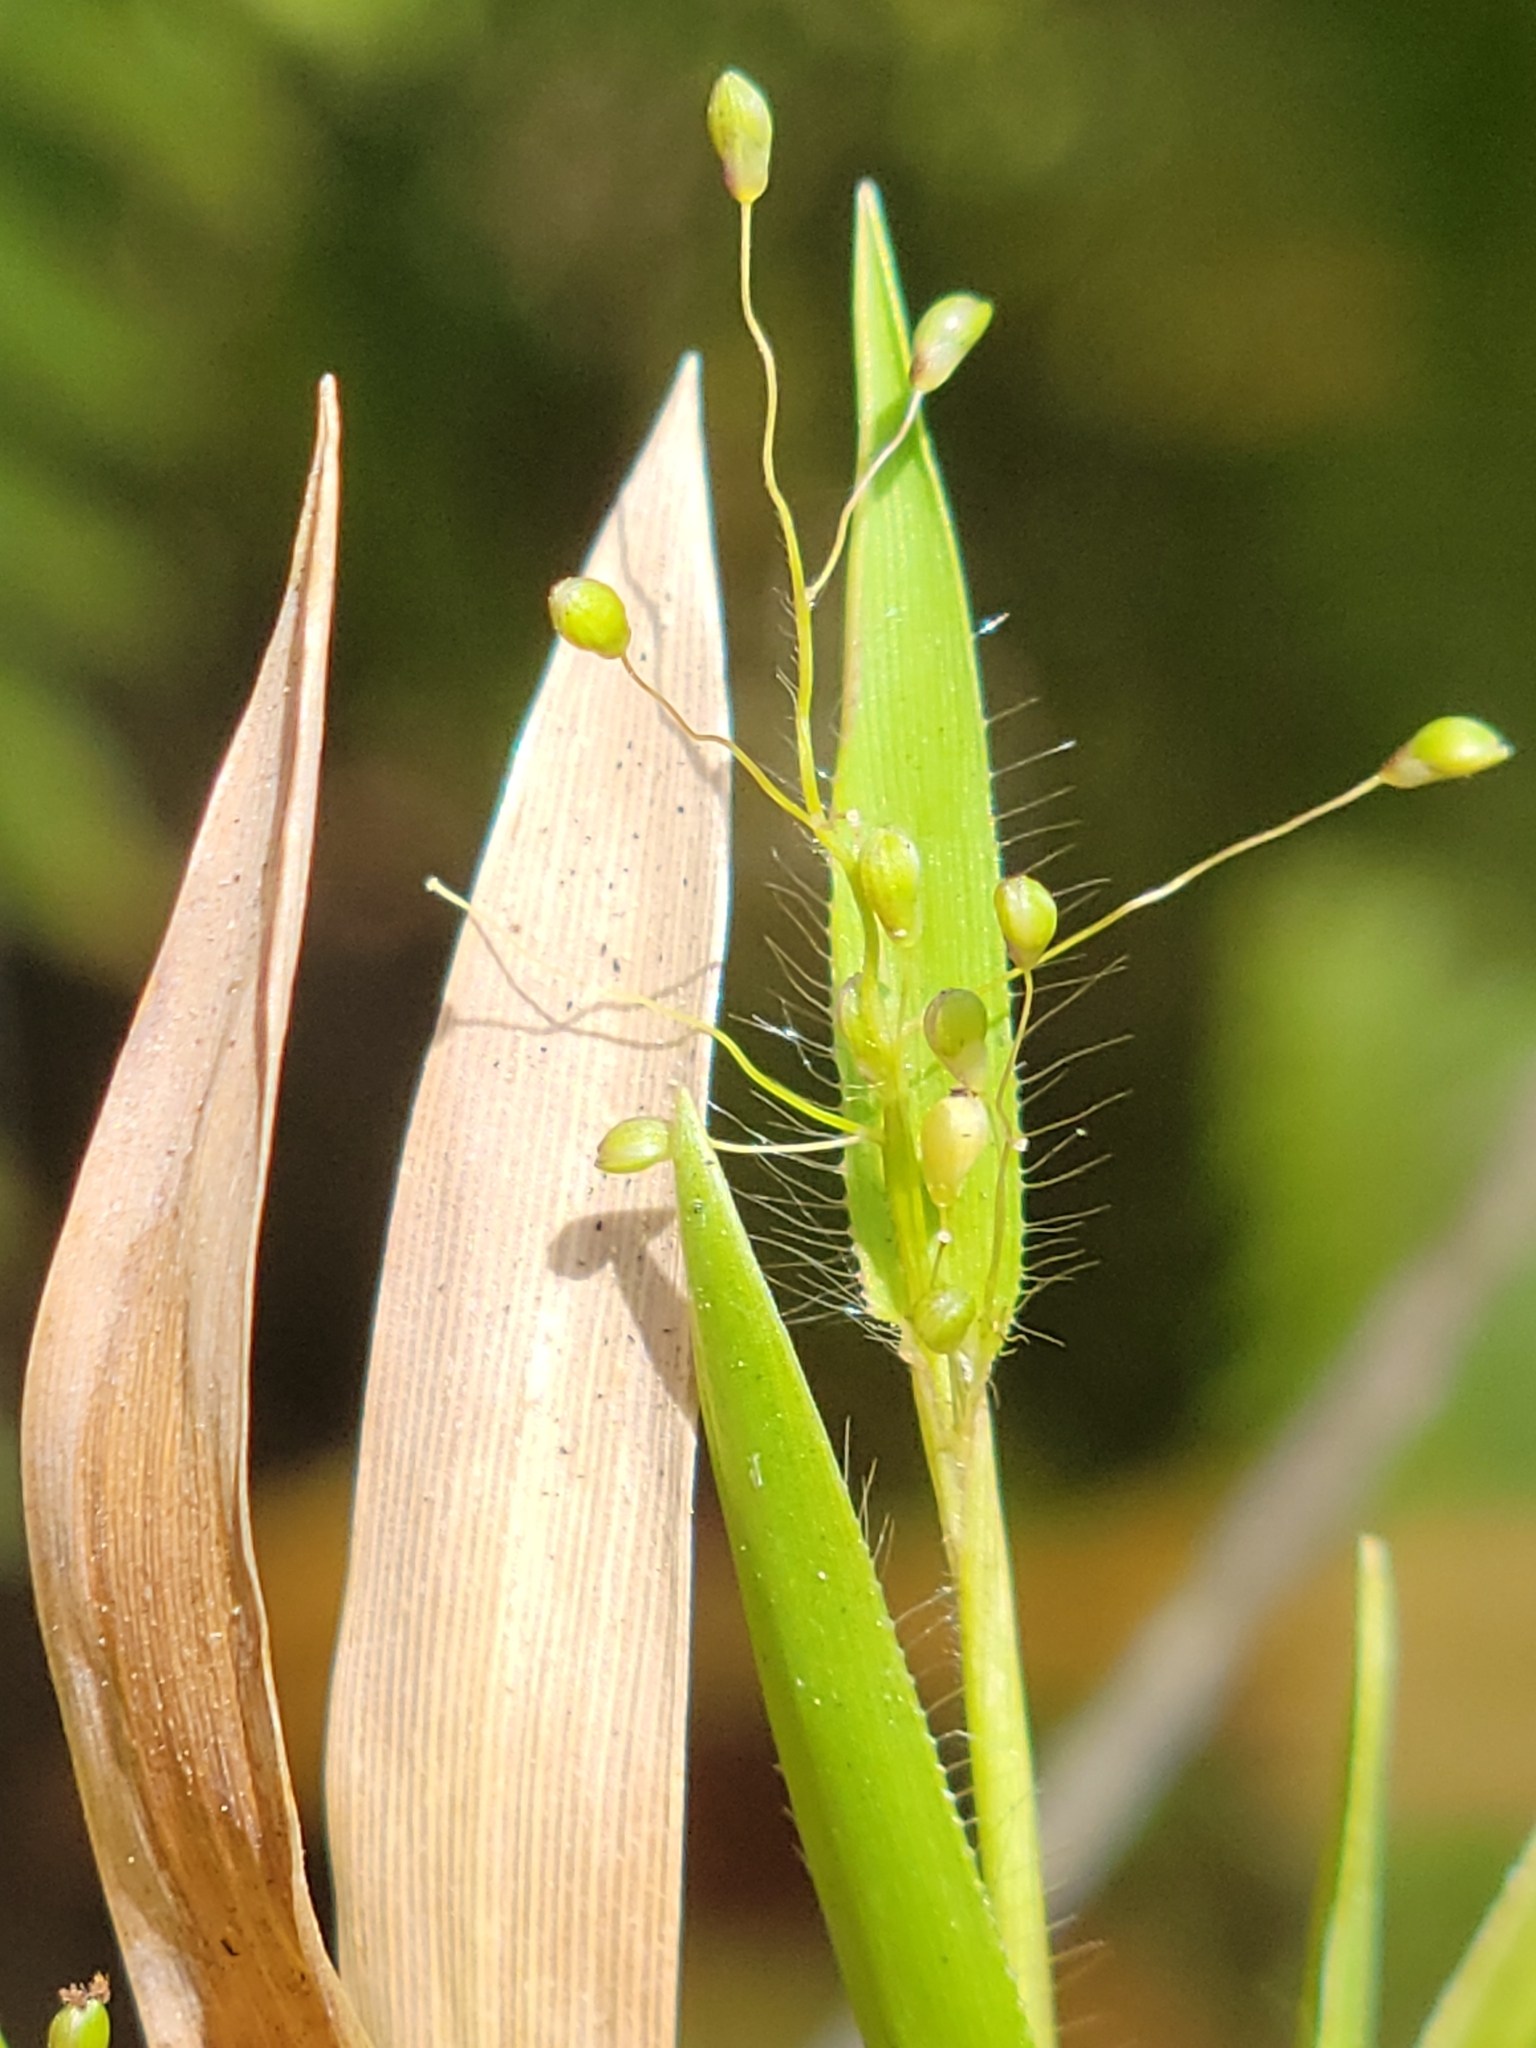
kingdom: Plantae
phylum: Tracheophyta
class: Liliopsida
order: Poales
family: Poaceae
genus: Dichanthelium
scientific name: Dichanthelium strigosum
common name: Cushion-tuft panic grass
